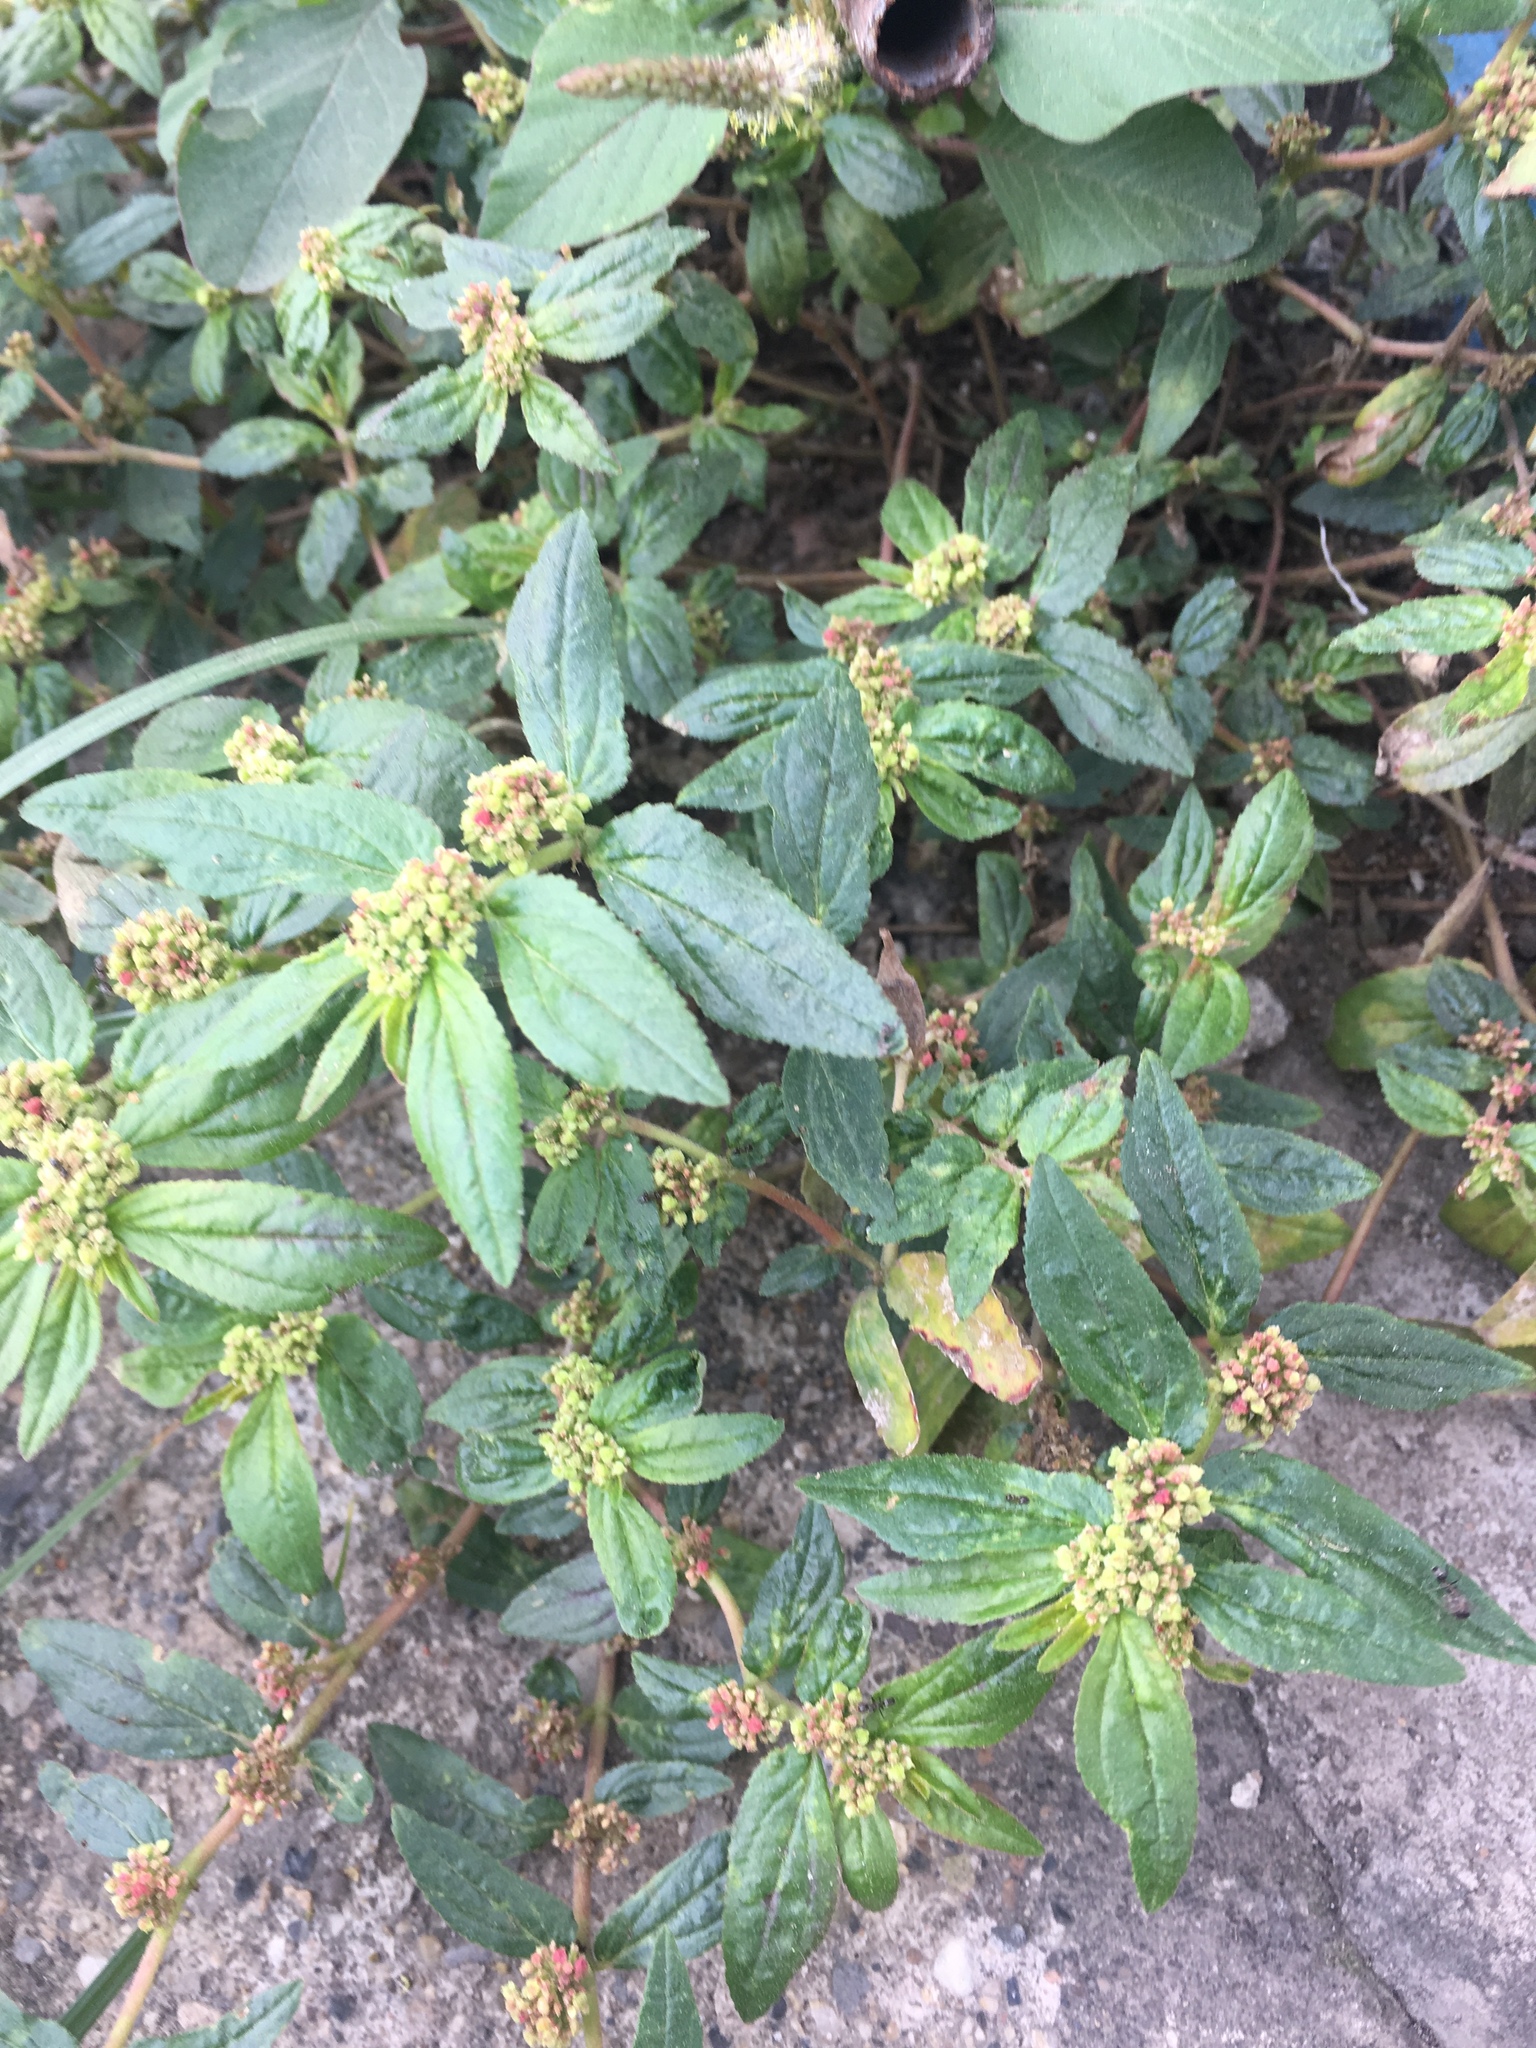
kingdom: Plantae
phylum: Tracheophyta
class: Magnoliopsida
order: Malpighiales
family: Euphorbiaceae
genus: Euphorbia
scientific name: Euphorbia hirta
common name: Pillpod sandmat
